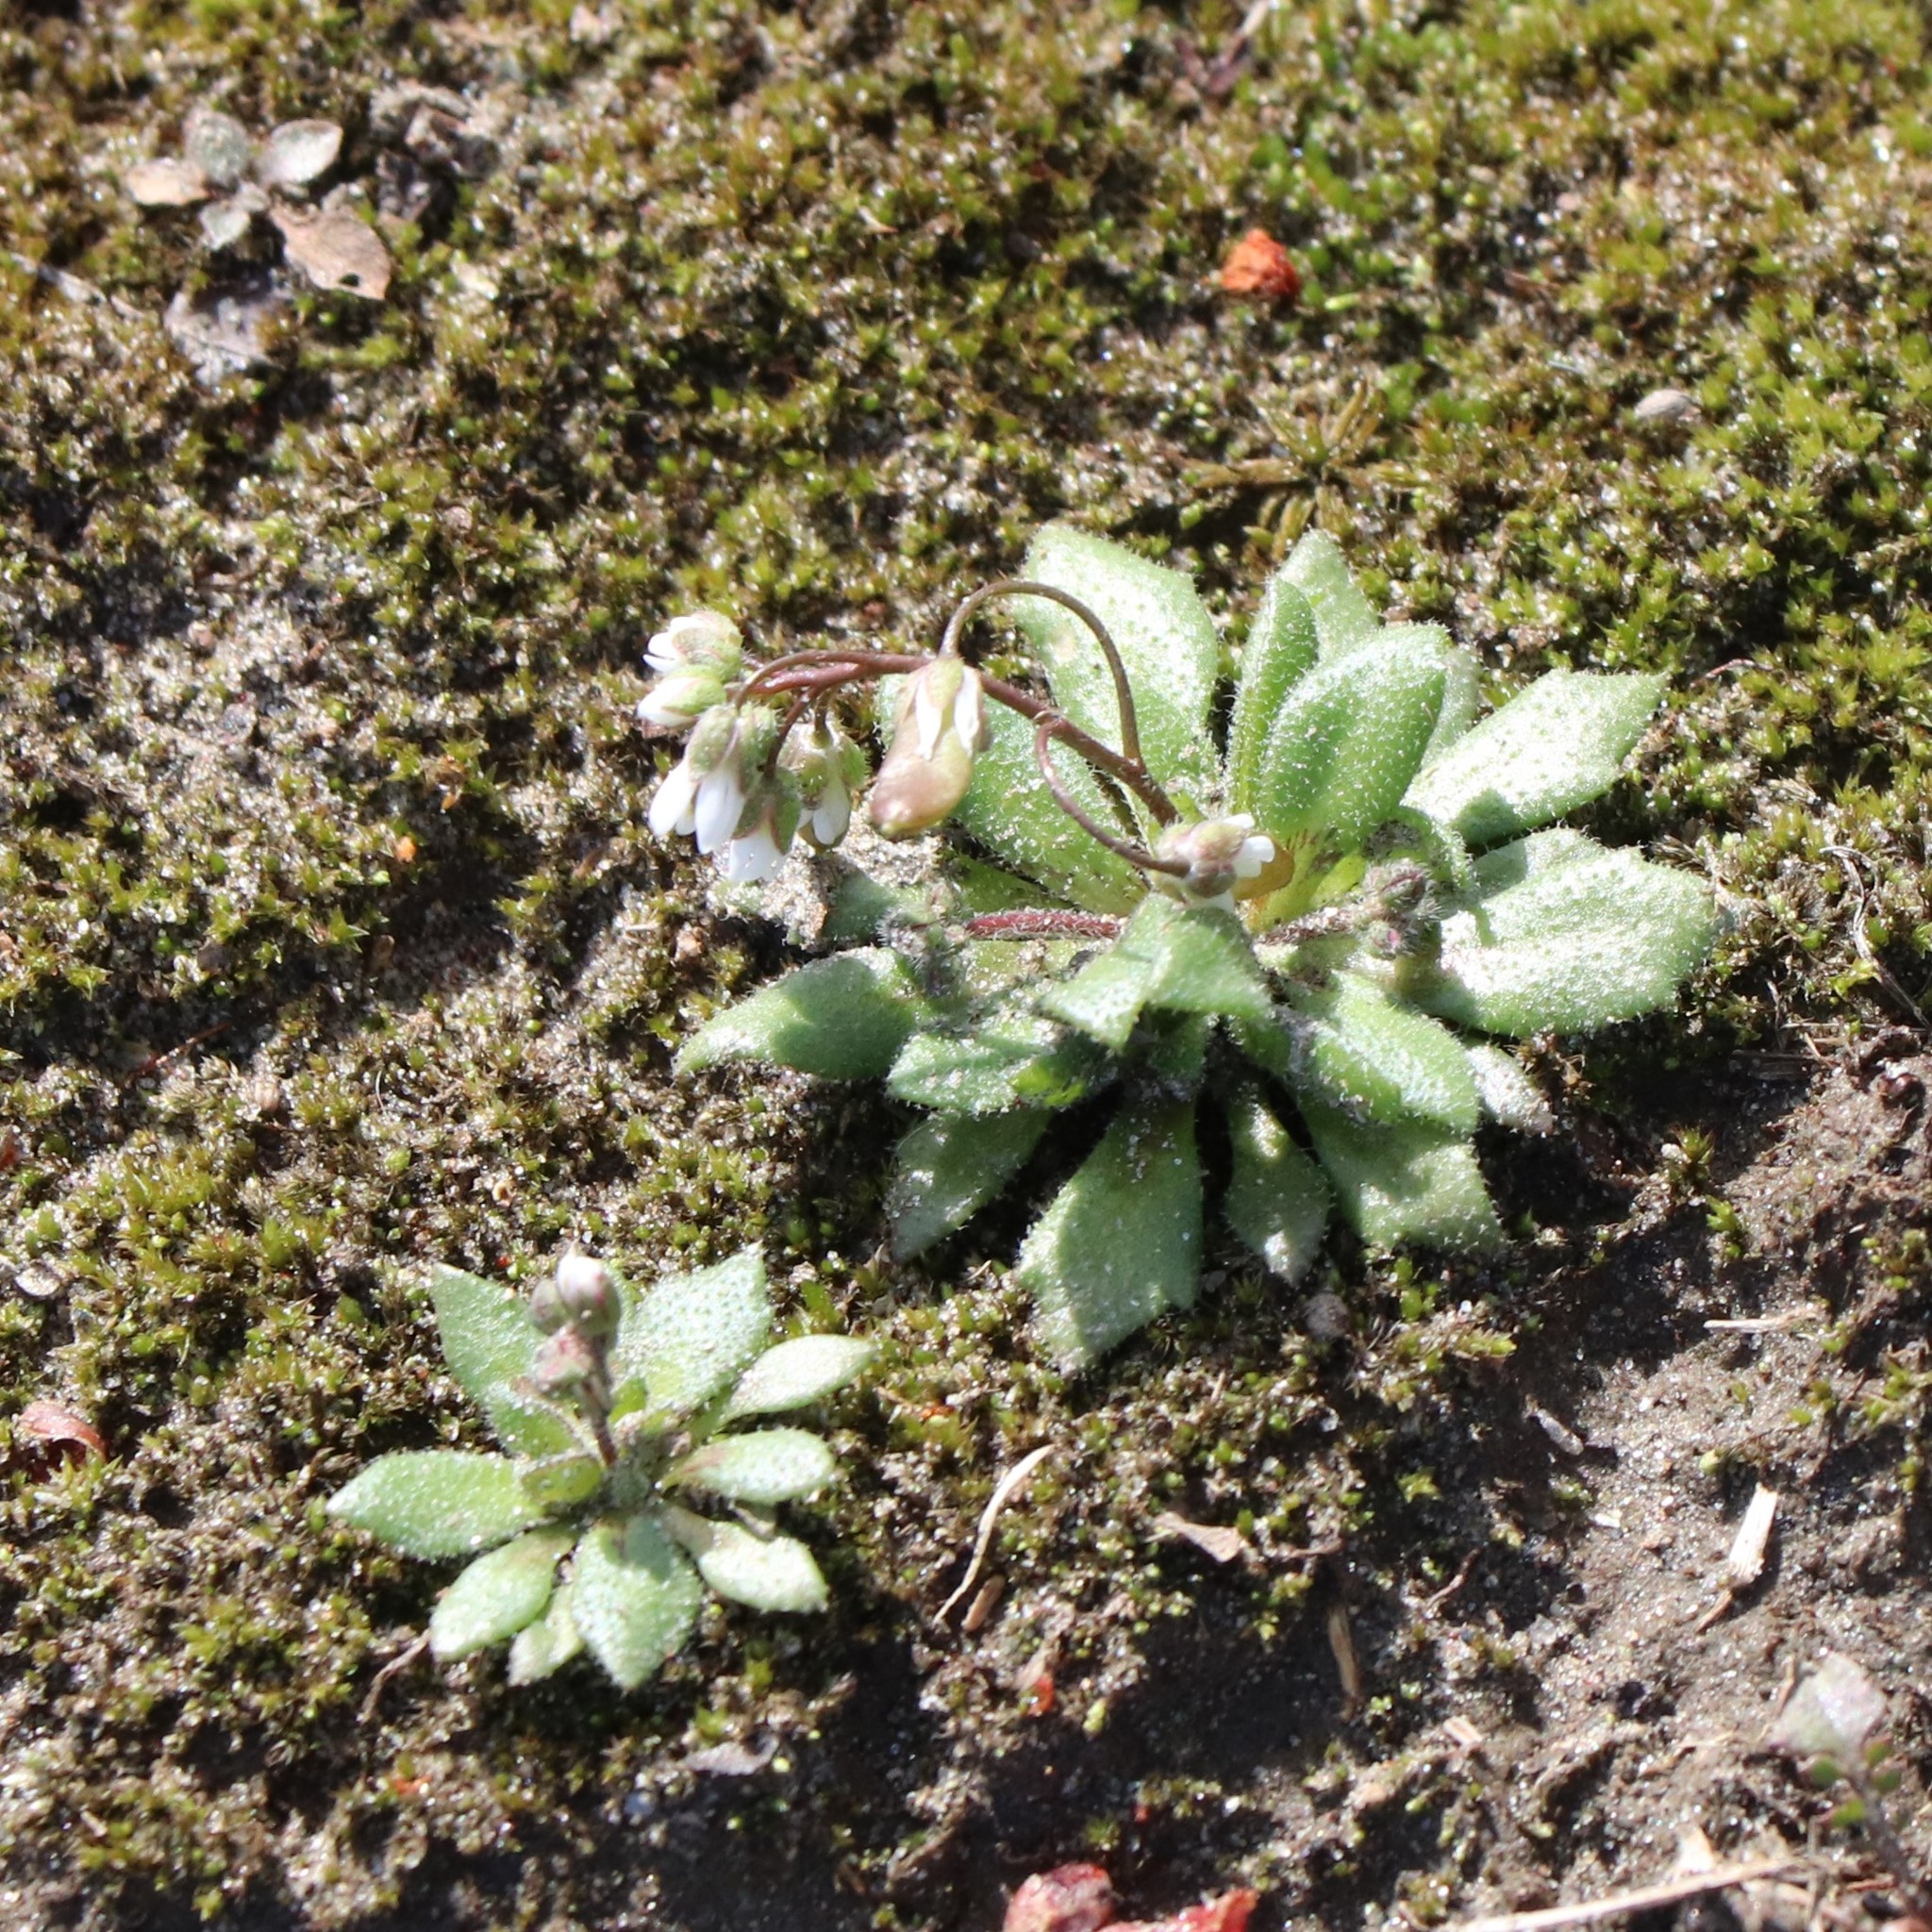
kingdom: Plantae
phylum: Tracheophyta
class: Magnoliopsida
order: Brassicales
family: Brassicaceae
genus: Draba
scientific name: Draba verna
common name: Spring draba
